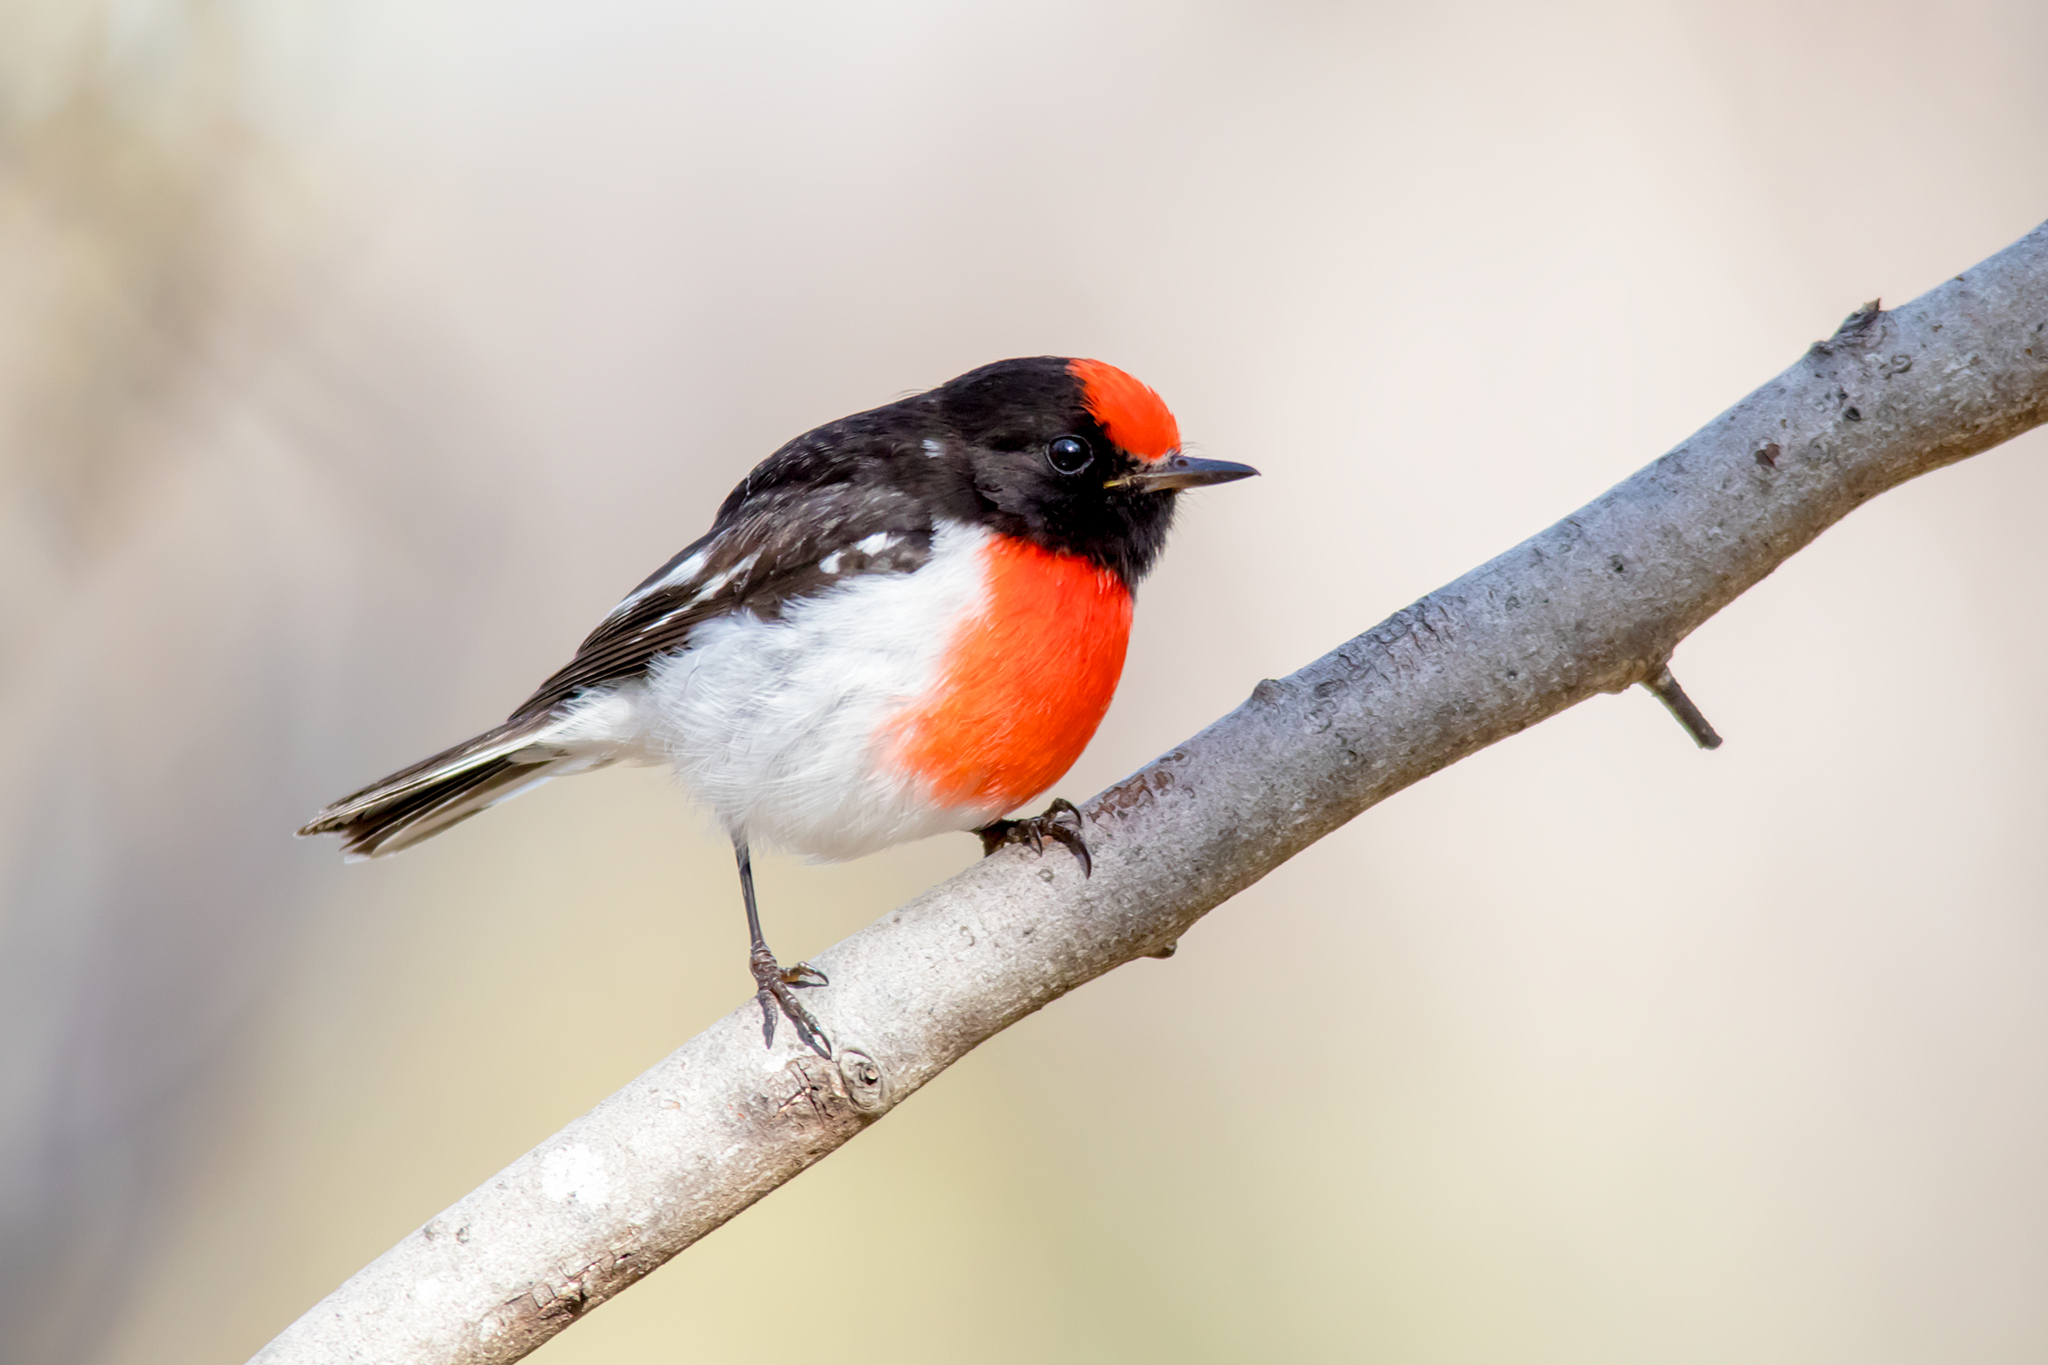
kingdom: Animalia
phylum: Chordata
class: Aves
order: Passeriformes
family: Petroicidae
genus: Petroica
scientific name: Petroica goodenovii
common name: Red-capped robin
